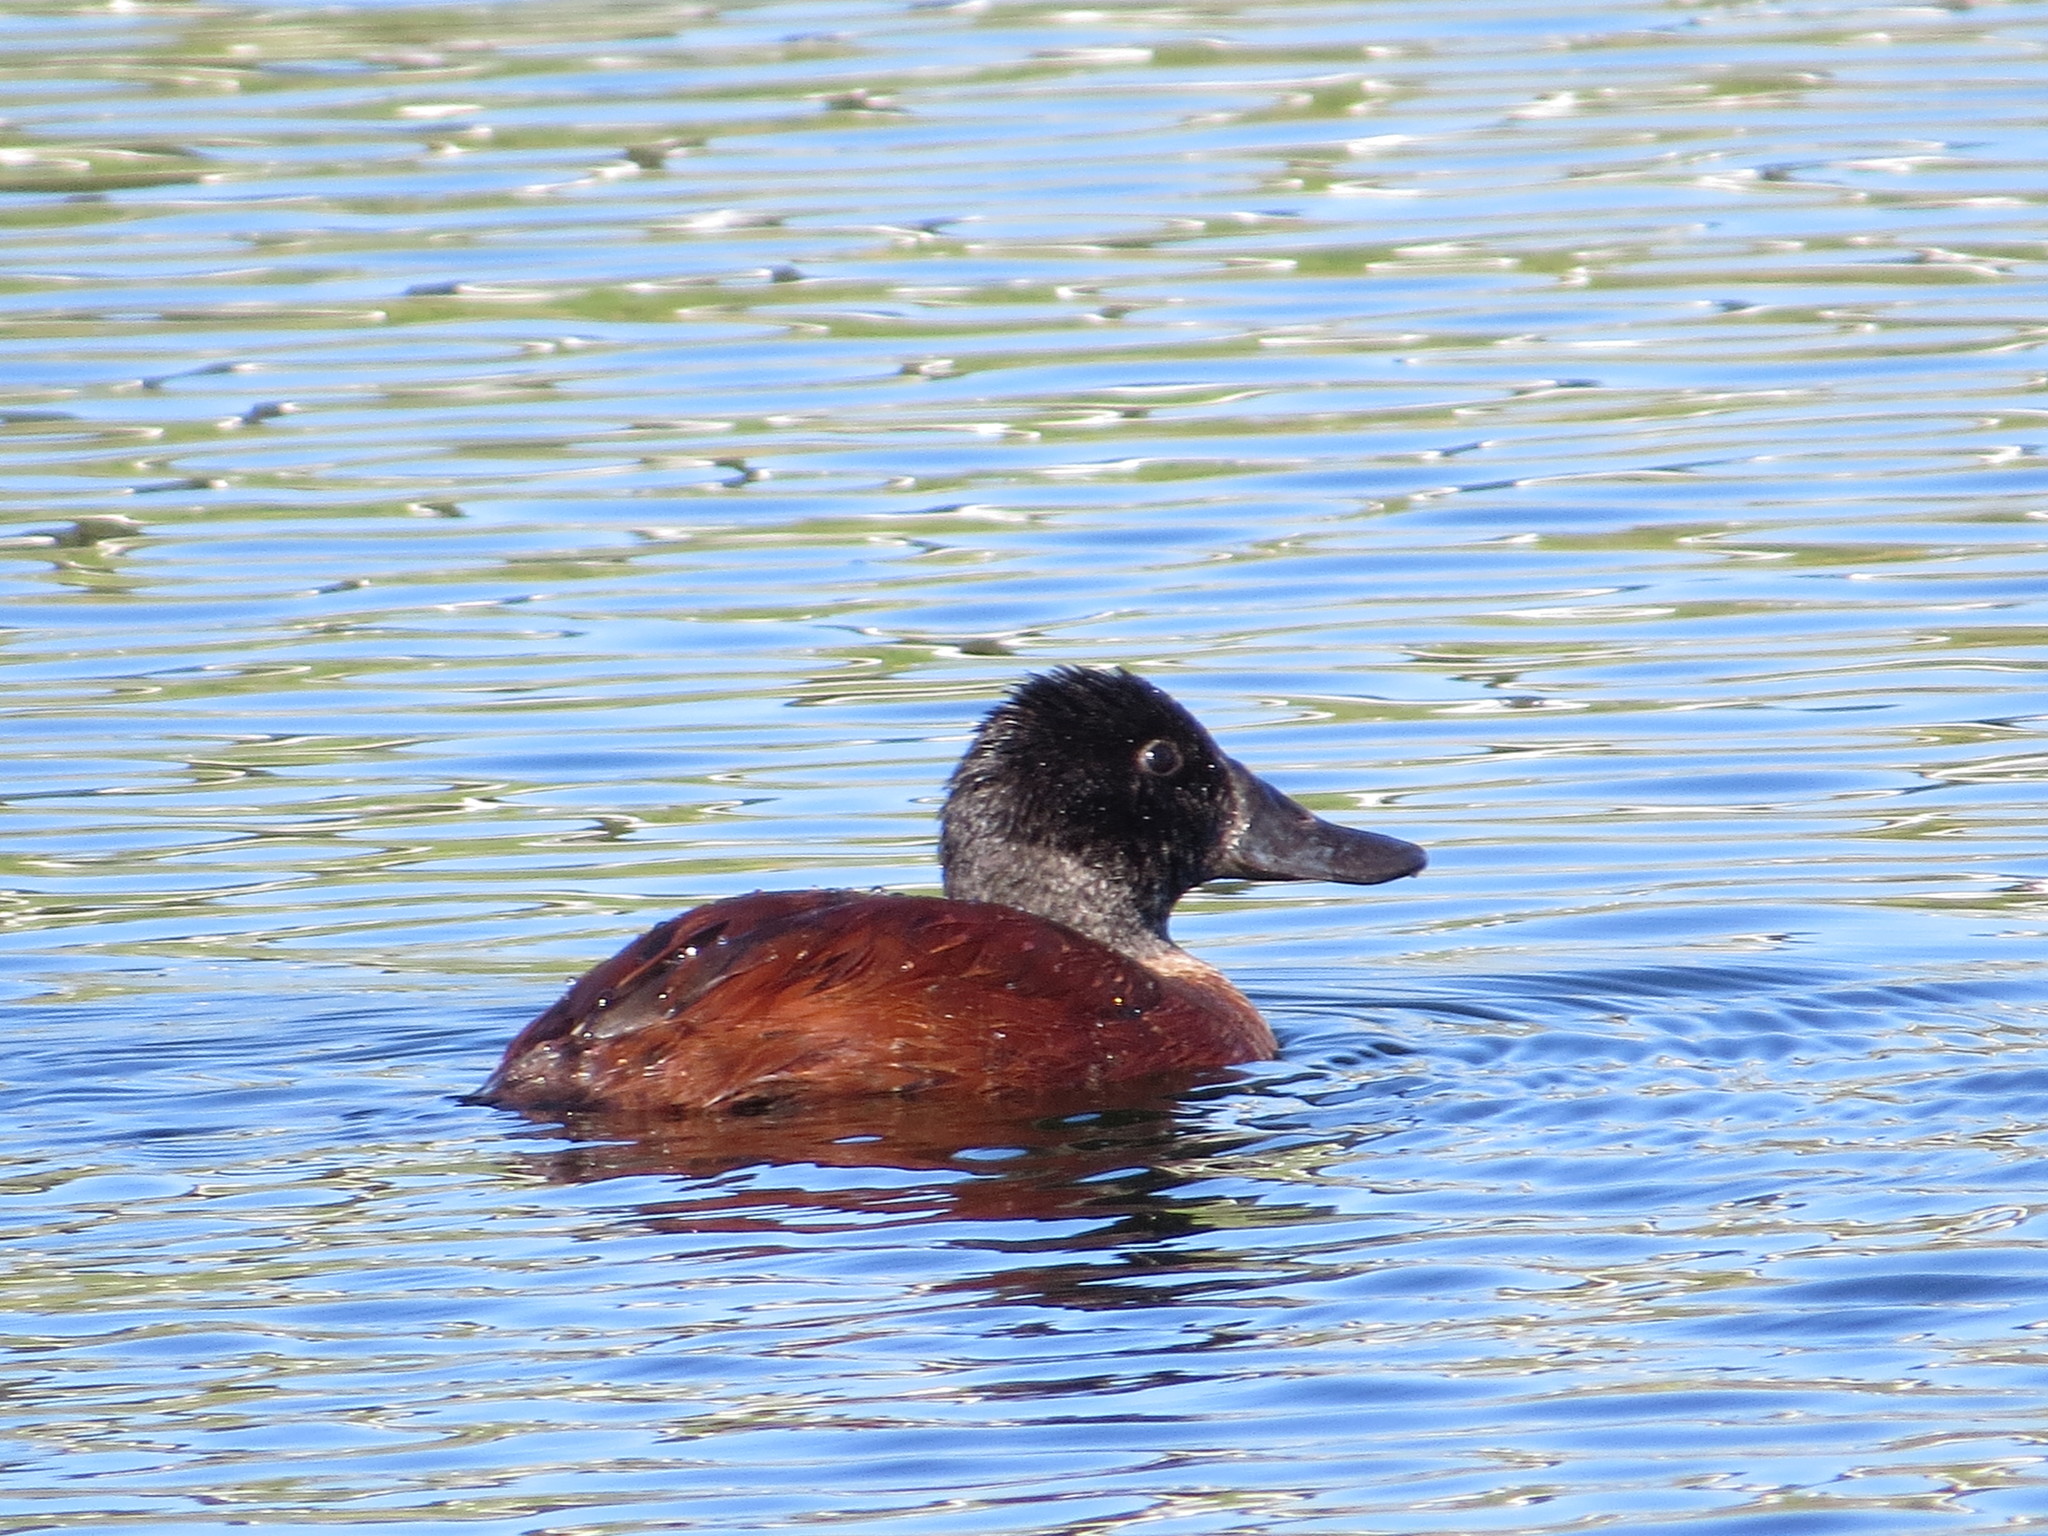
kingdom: Animalia
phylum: Chordata
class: Aves
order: Anseriformes
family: Anatidae
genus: Oxyura
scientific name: Oxyura vittata
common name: Lake duck
